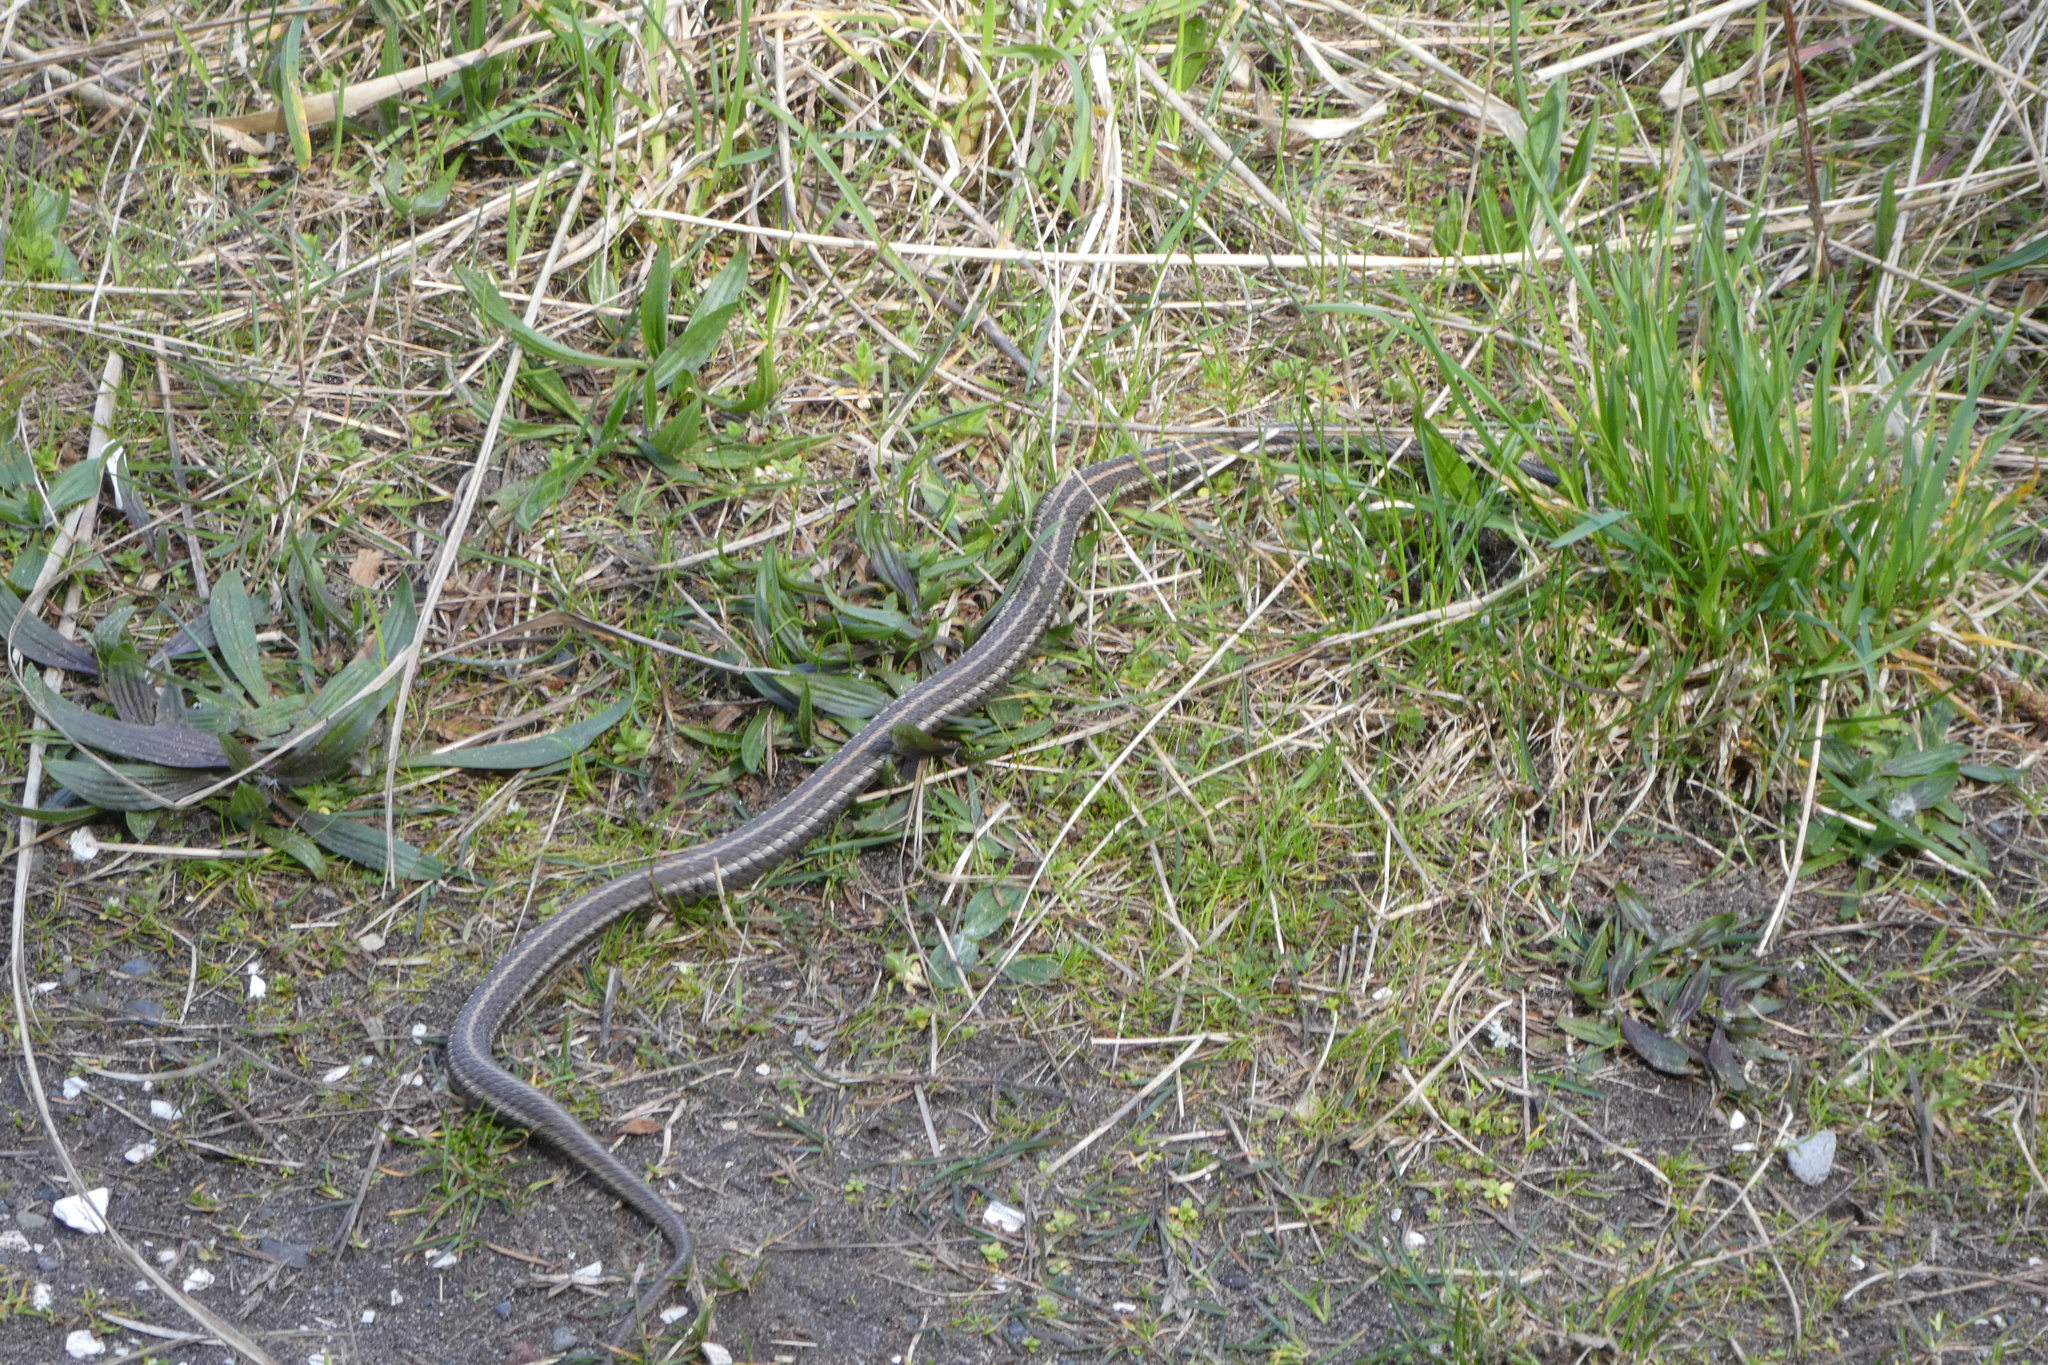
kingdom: Animalia
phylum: Chordata
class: Squamata
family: Colubridae
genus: Thamnophis
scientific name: Thamnophis ordinoides
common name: Northwestern garter snake
